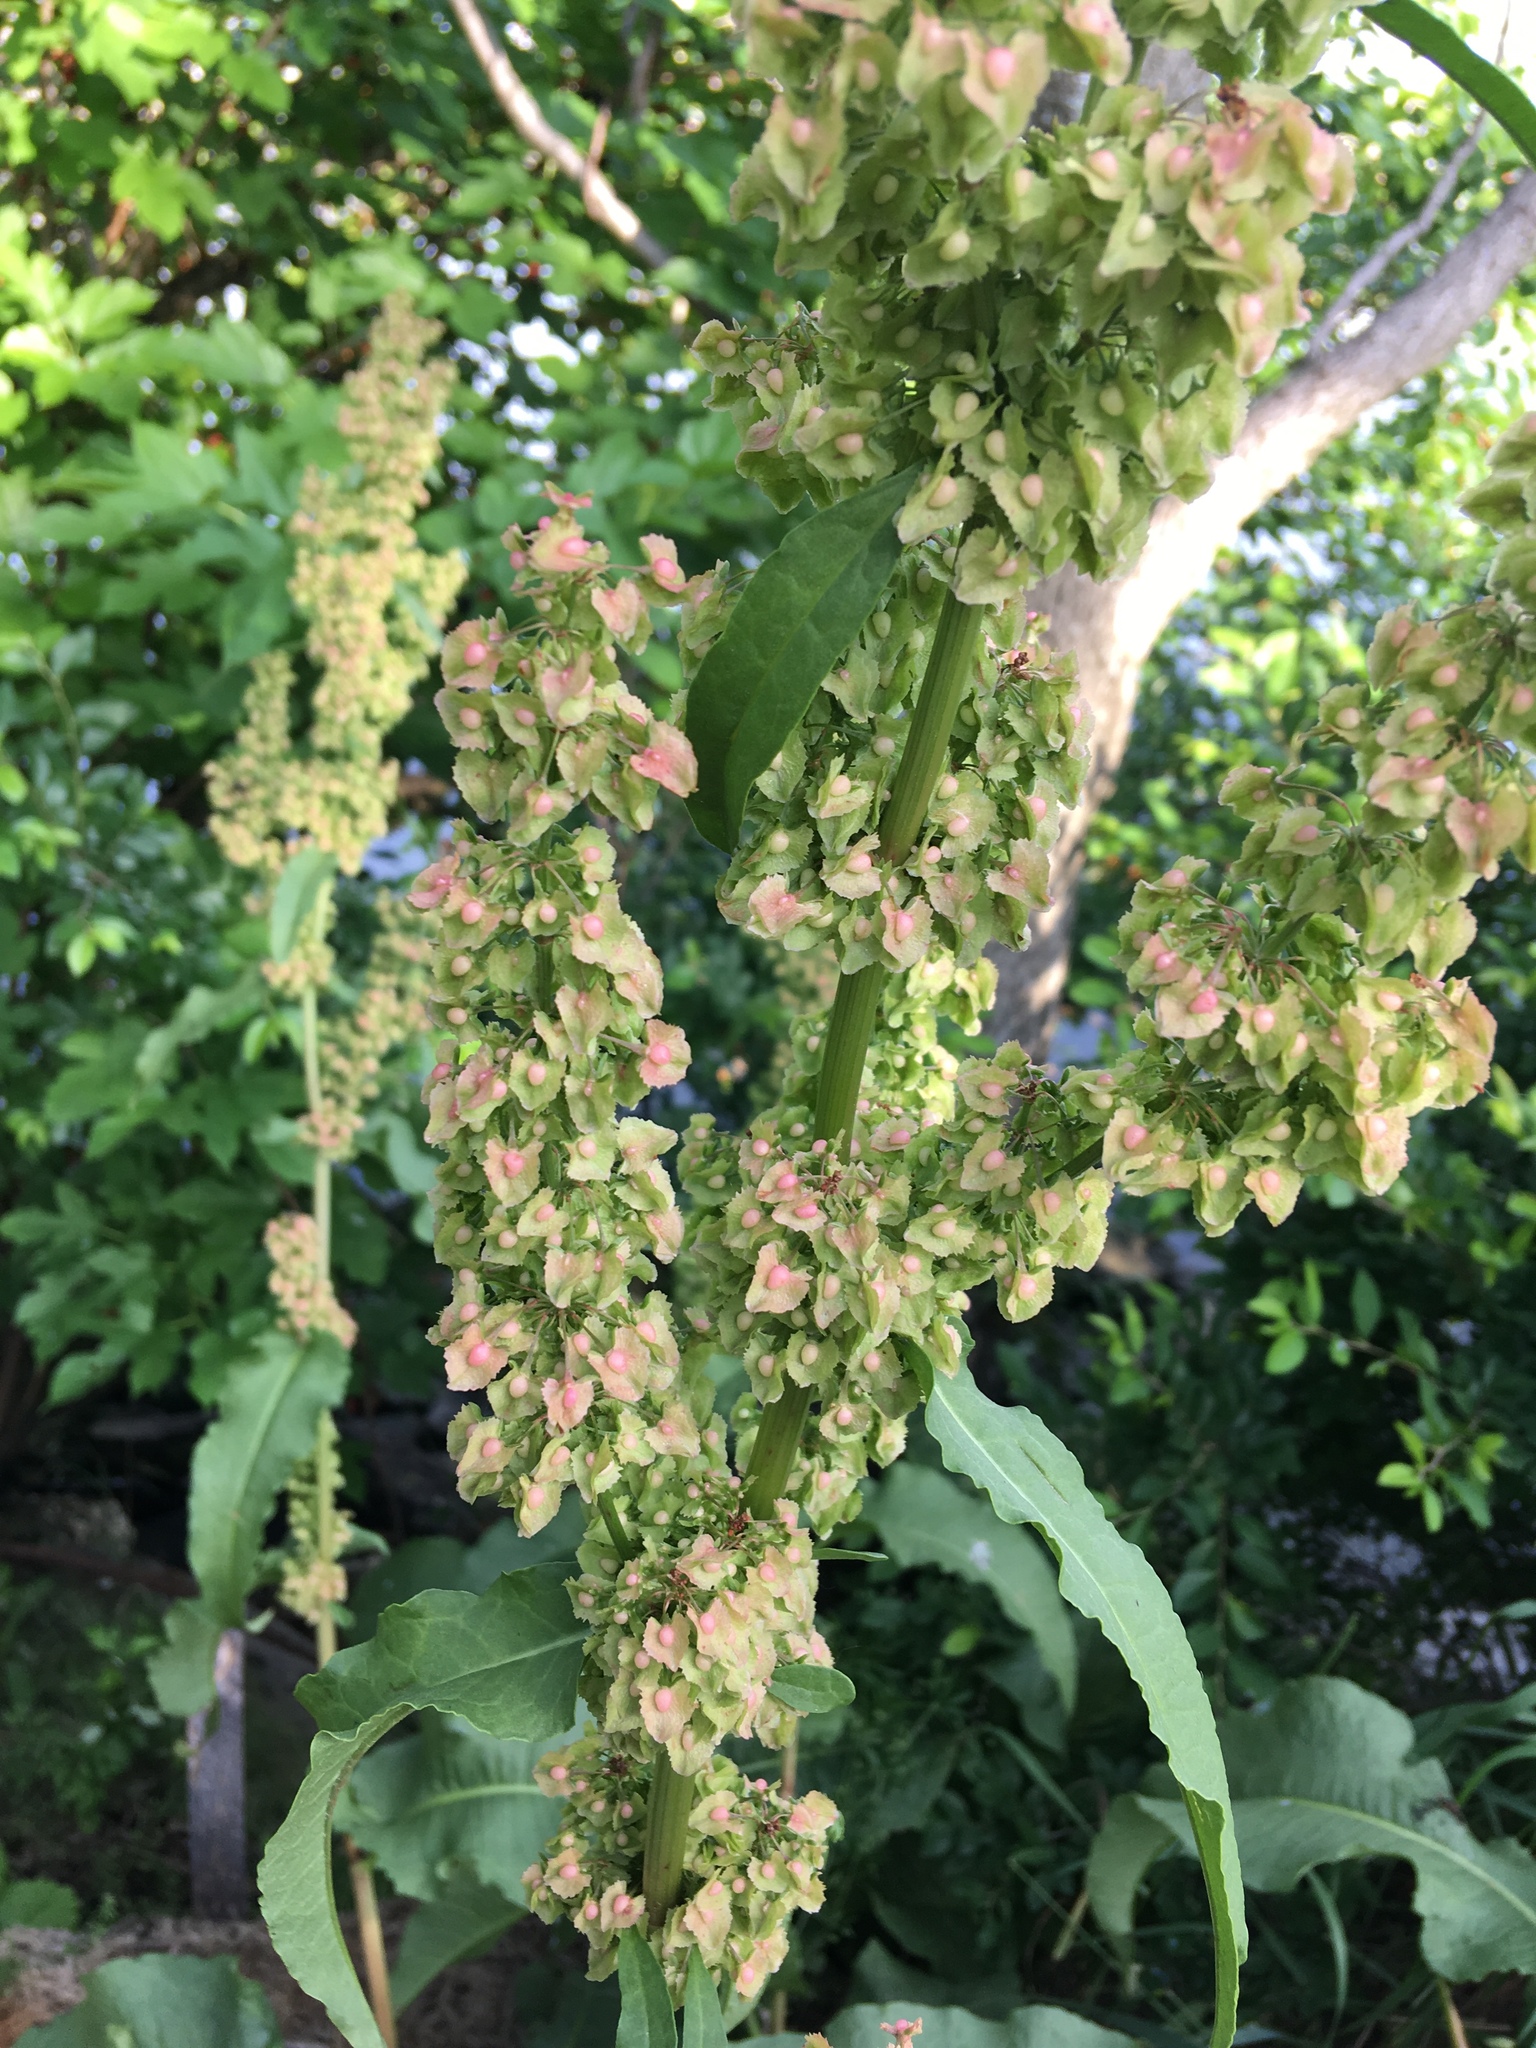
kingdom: Plantae
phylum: Tracheophyta
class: Magnoliopsida
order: Caryophyllales
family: Polygonaceae
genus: Rumex
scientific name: Rumex cristatus
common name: Greek dock
